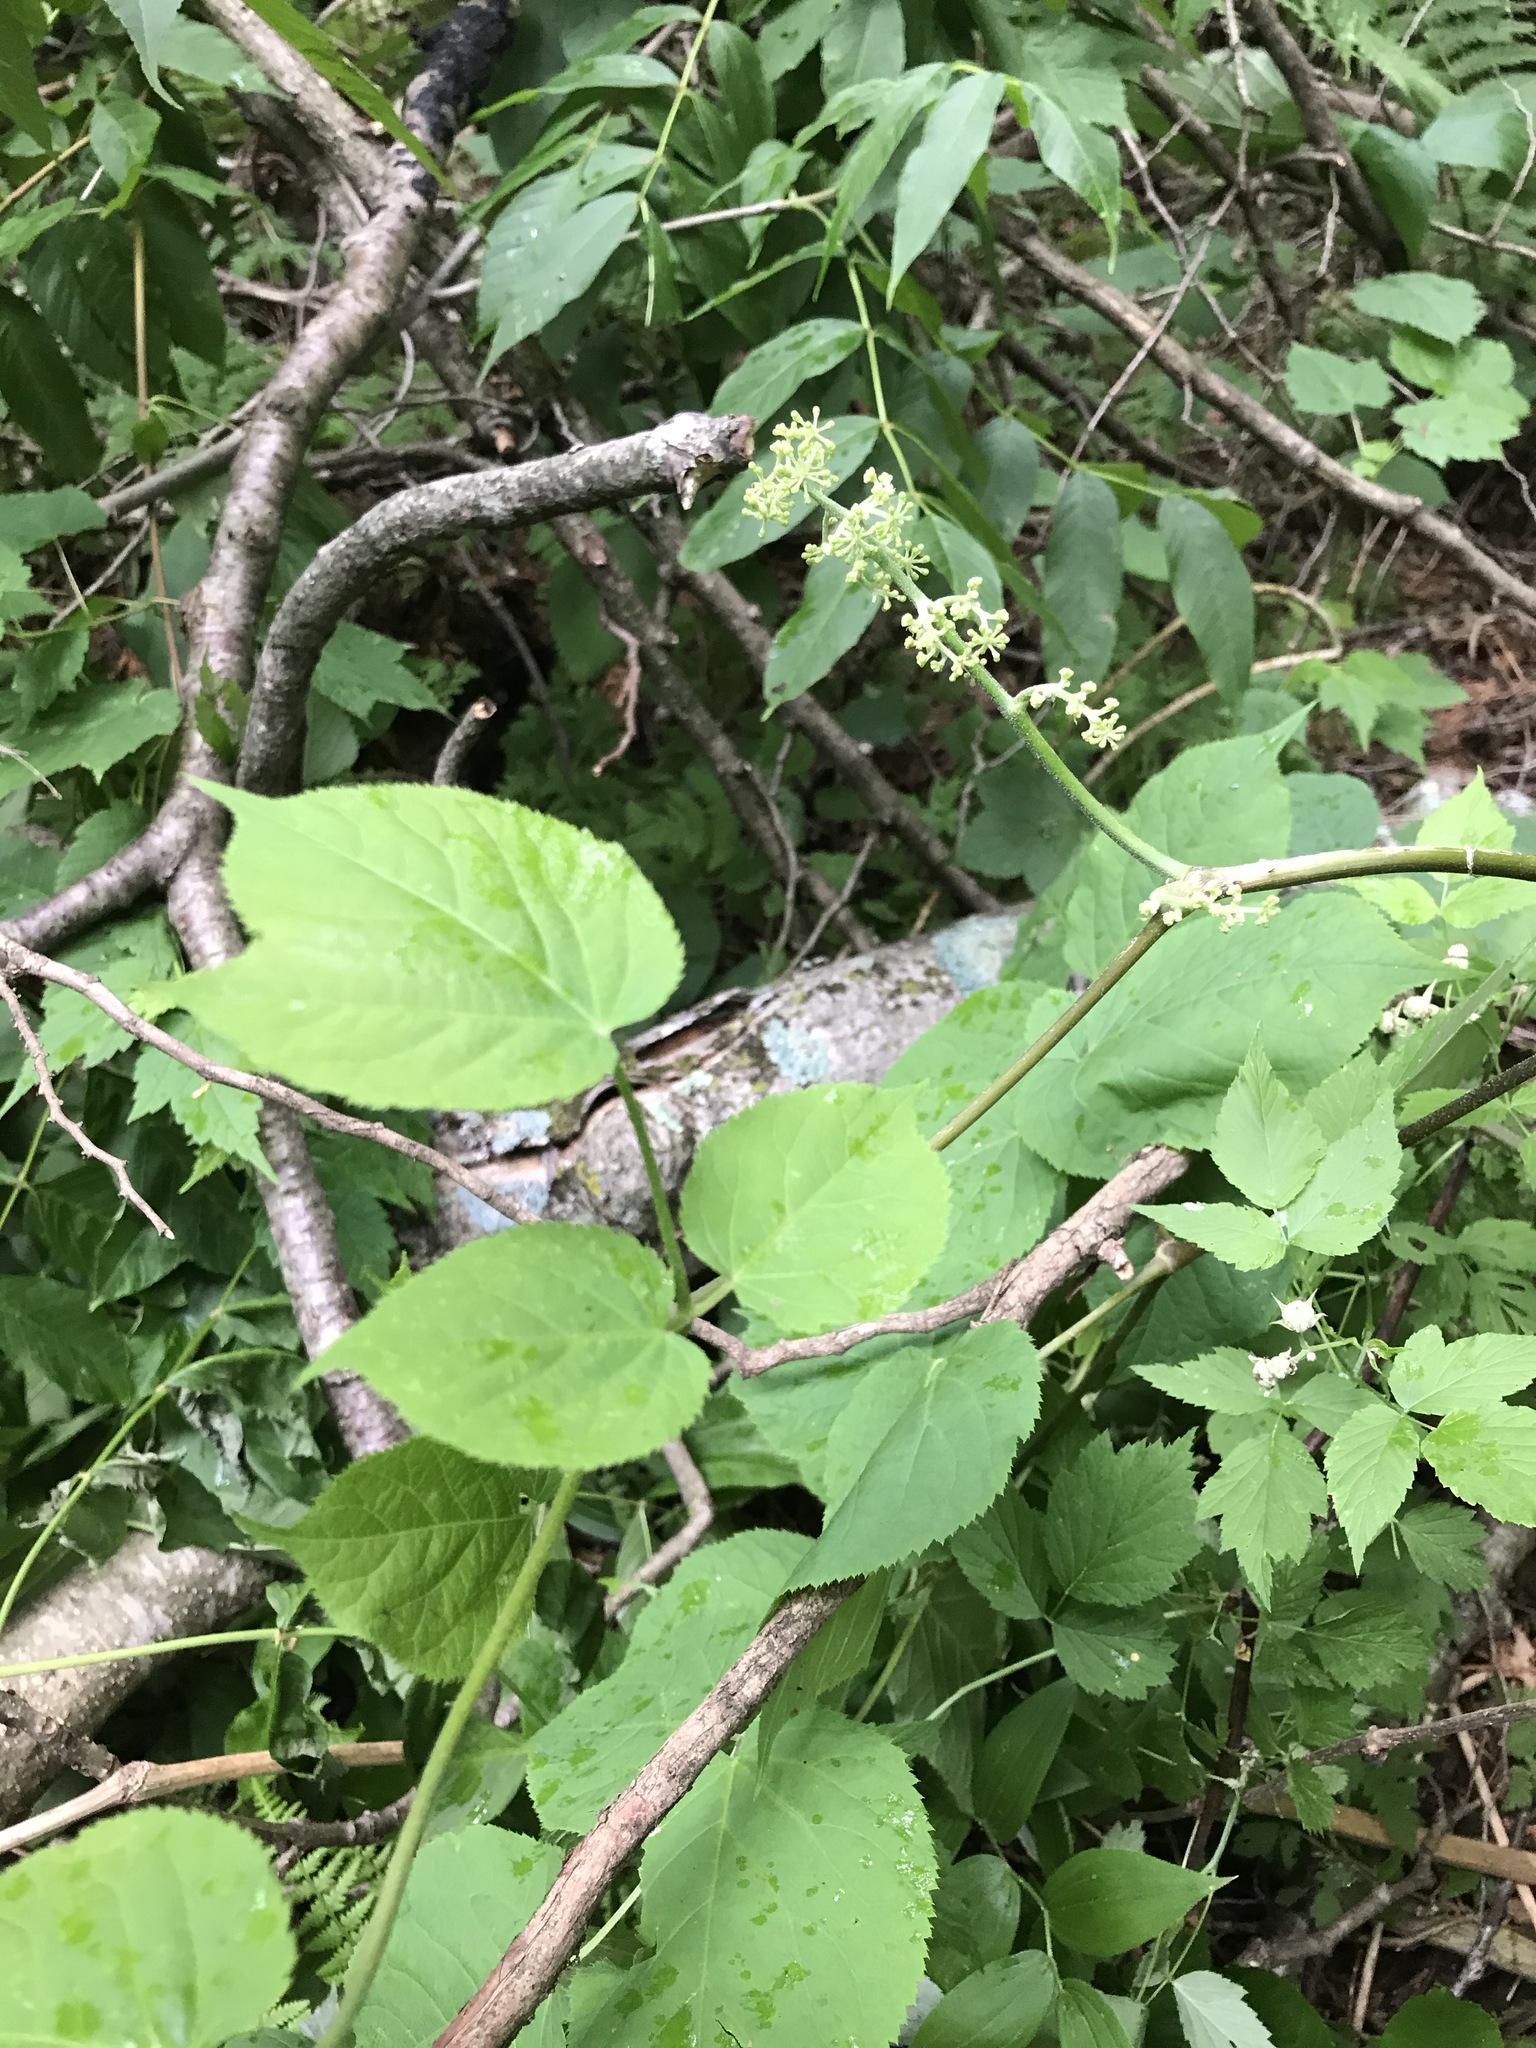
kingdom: Plantae
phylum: Tracheophyta
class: Magnoliopsida
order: Apiales
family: Araliaceae
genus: Aralia
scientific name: Aralia racemosa
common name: American-spikenard
